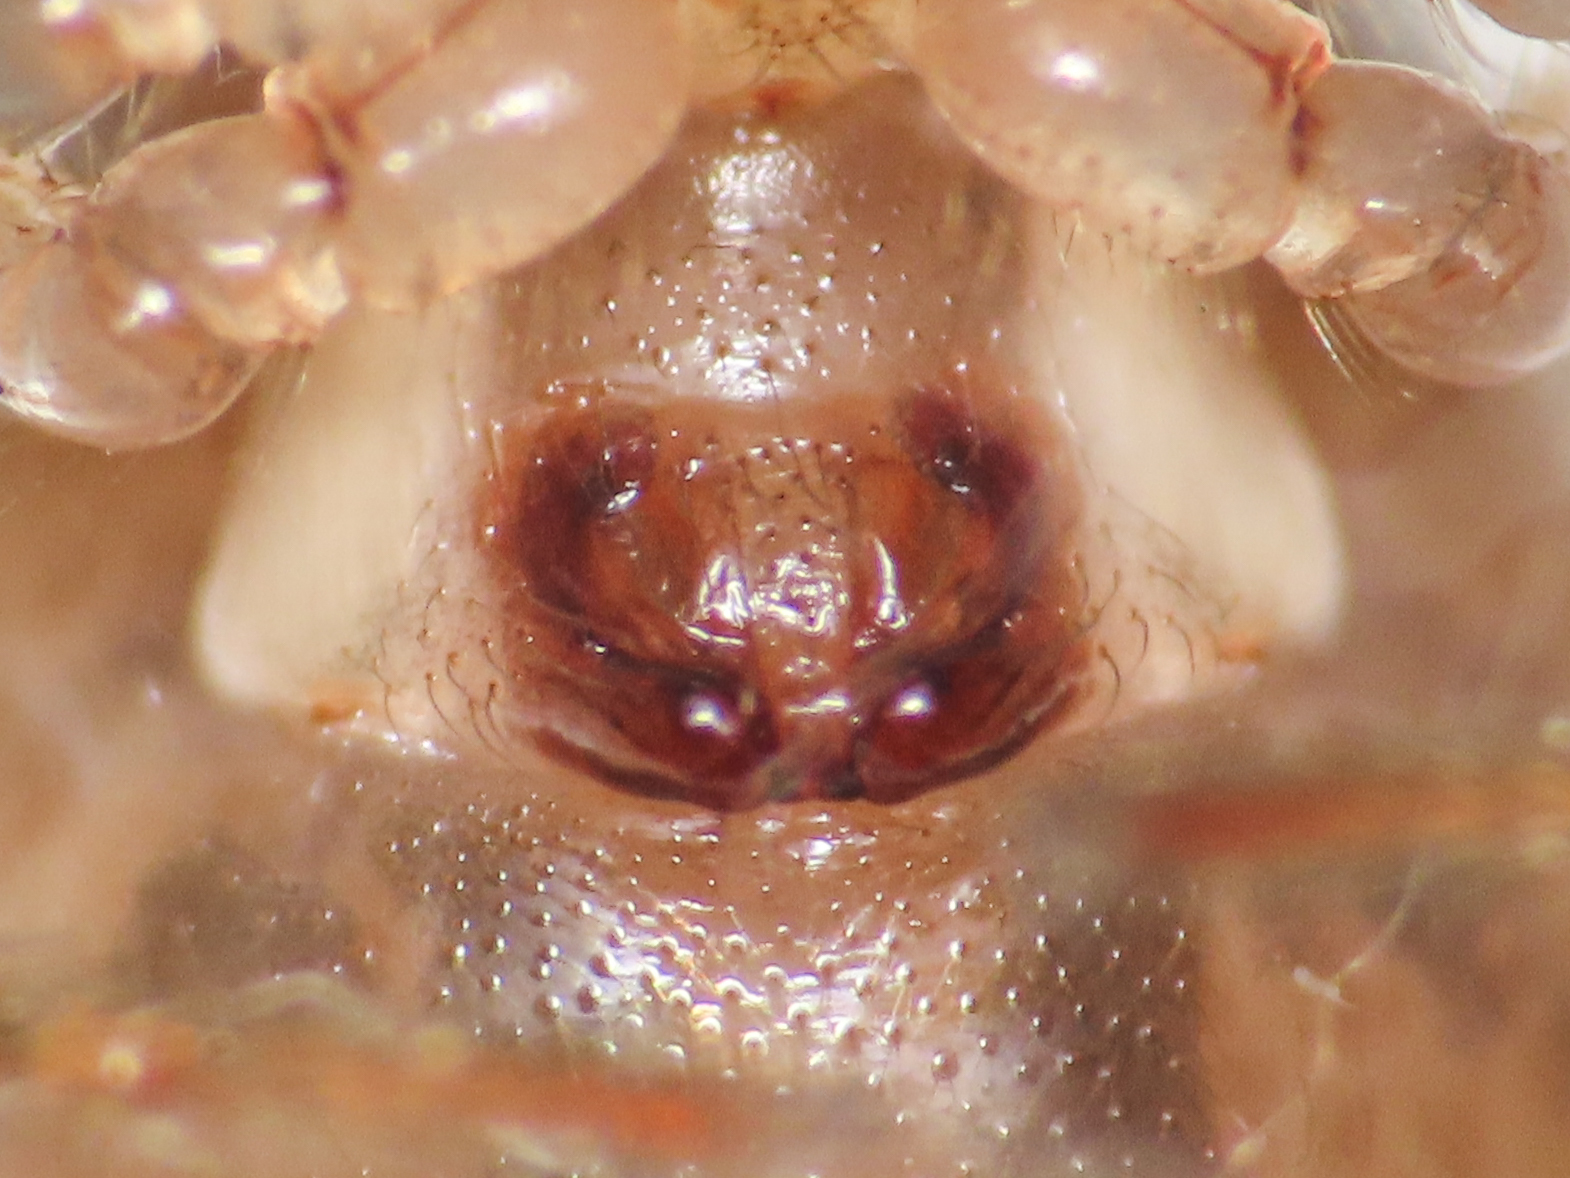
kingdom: Animalia
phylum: Arthropoda
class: Arachnida
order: Araneae
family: Nesticidae
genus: Kryptonesticus
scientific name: Kryptonesticus eremita
